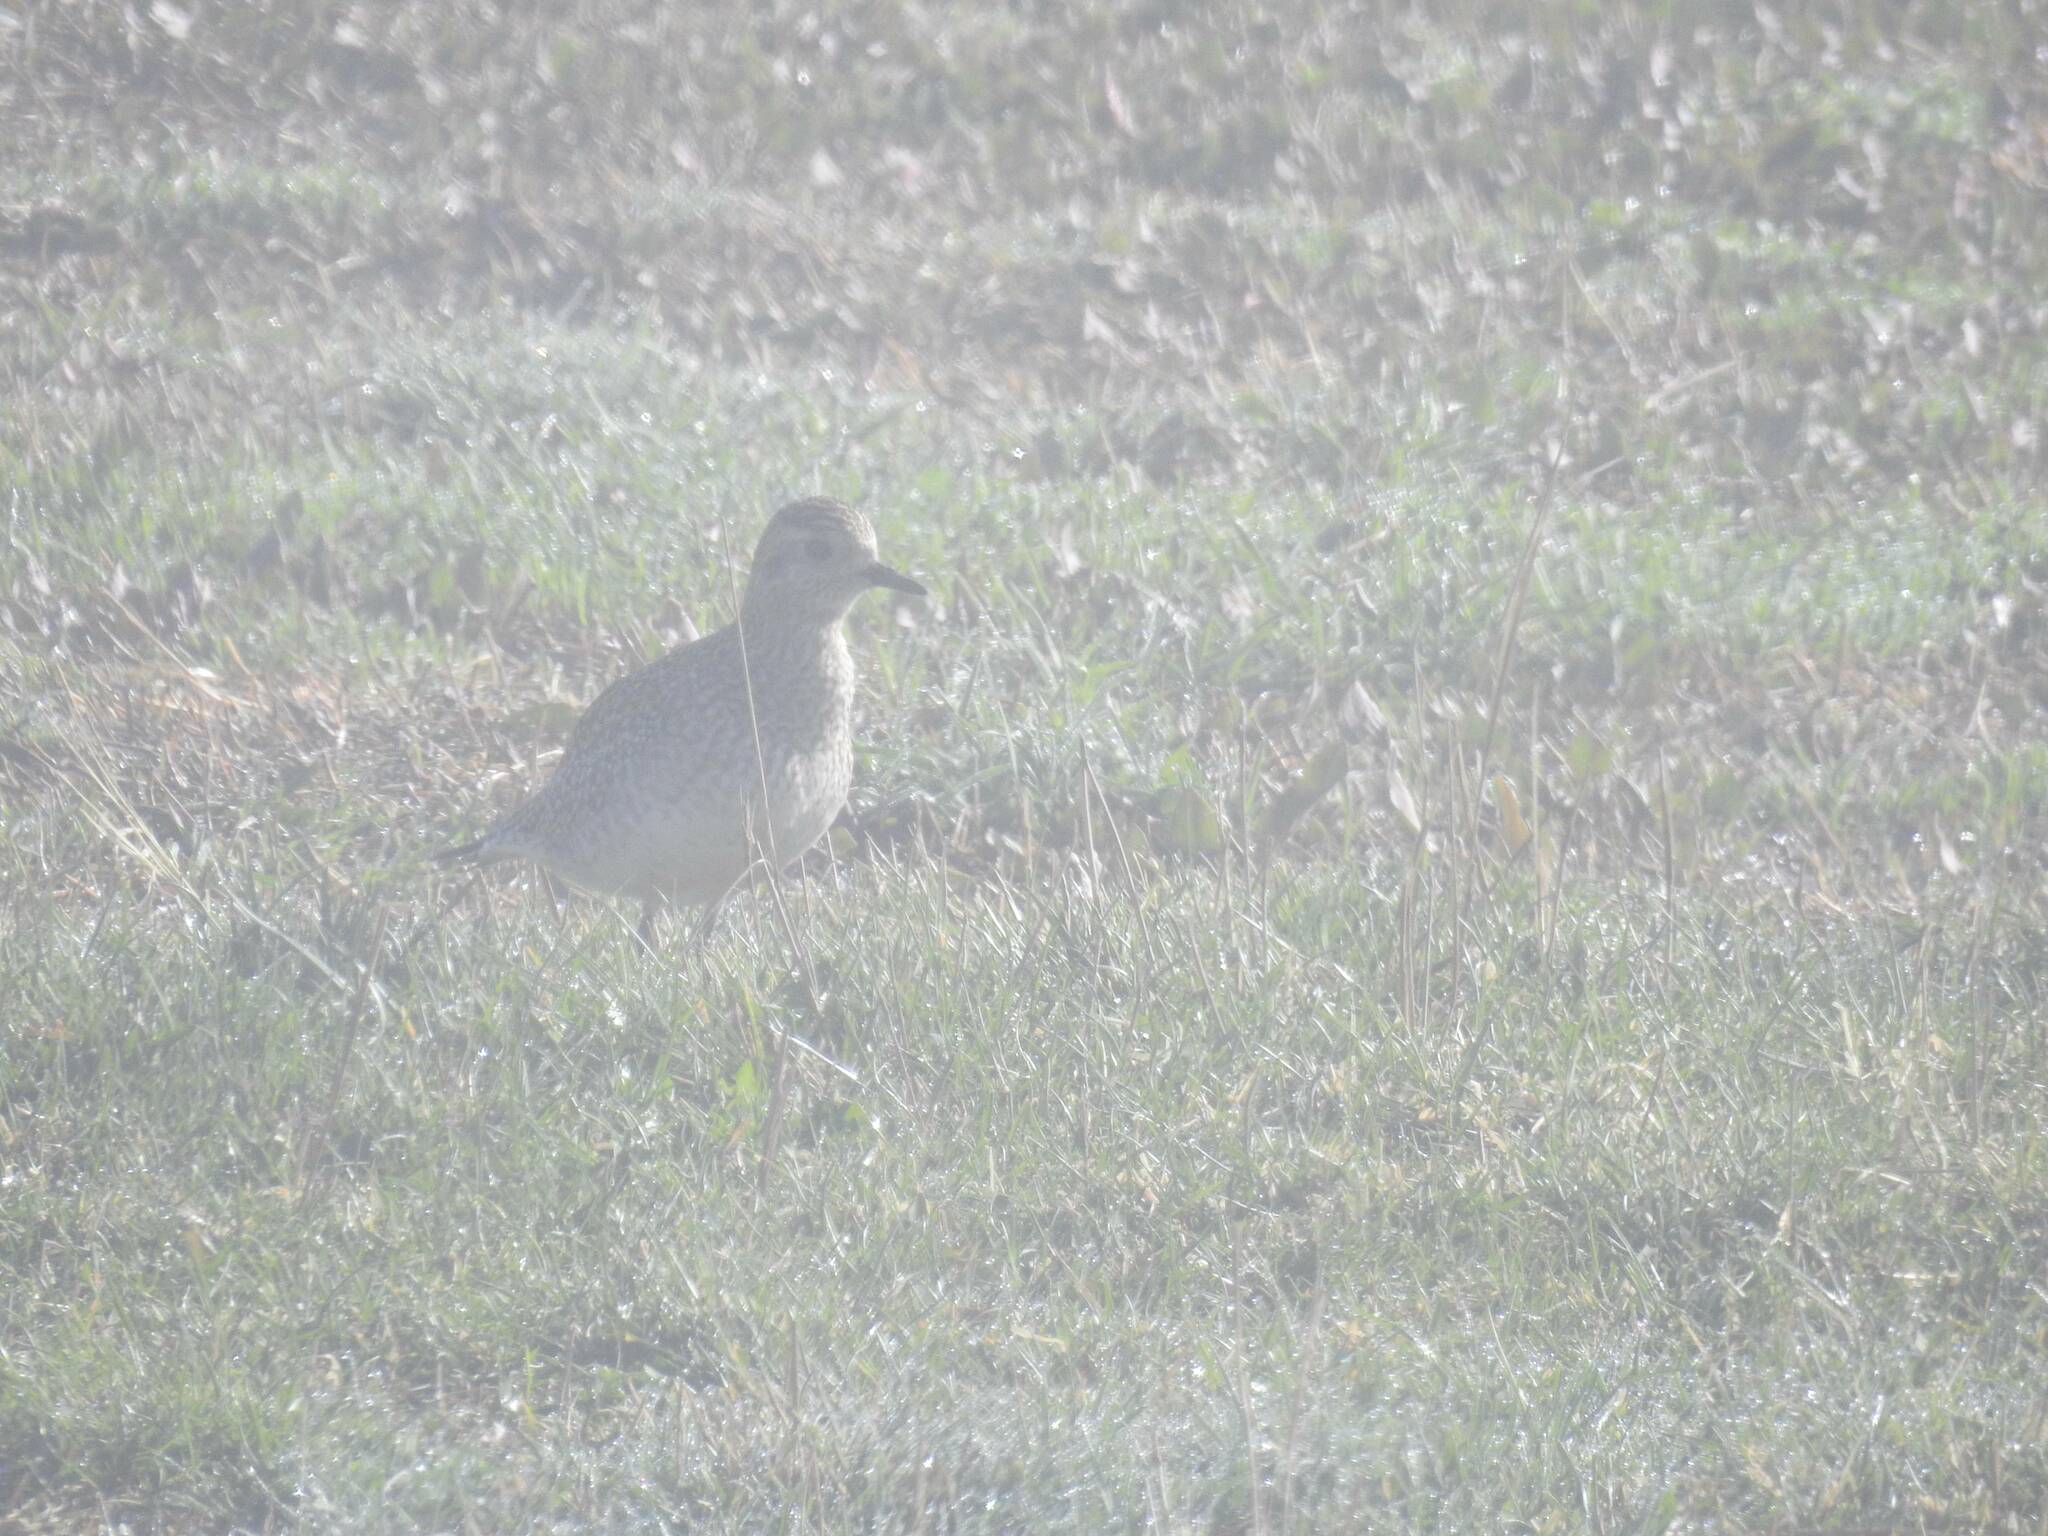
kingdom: Animalia
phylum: Chordata
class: Aves
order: Charadriiformes
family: Charadriidae
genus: Pluvialis
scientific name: Pluvialis apricaria
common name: European golden plover
